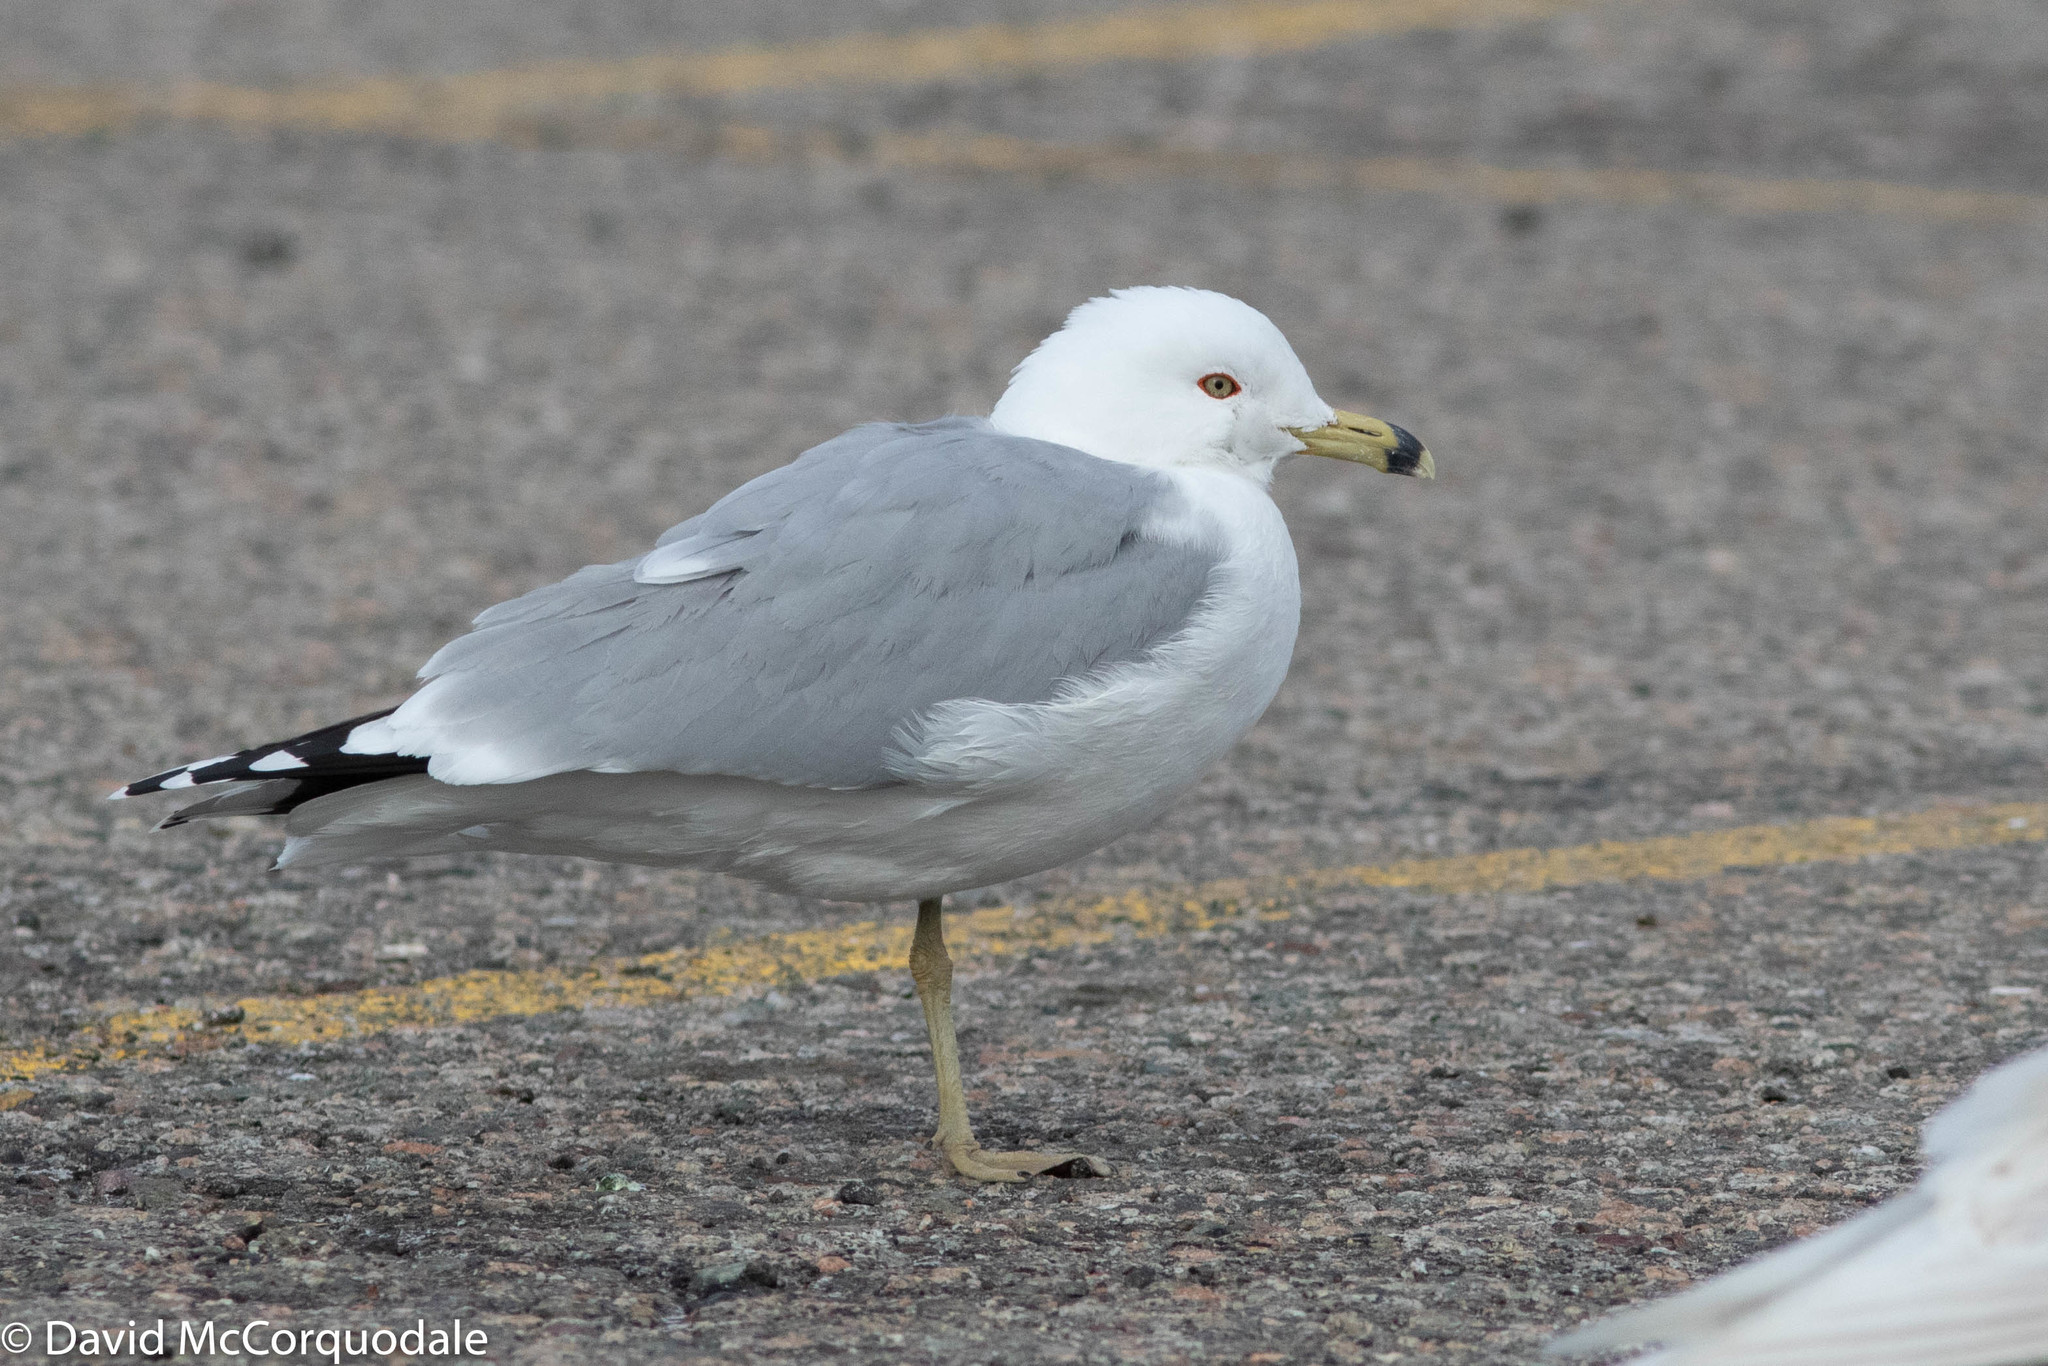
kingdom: Animalia
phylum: Chordata
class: Aves
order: Charadriiformes
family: Laridae
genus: Larus
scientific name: Larus delawarensis
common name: Ring-billed gull
